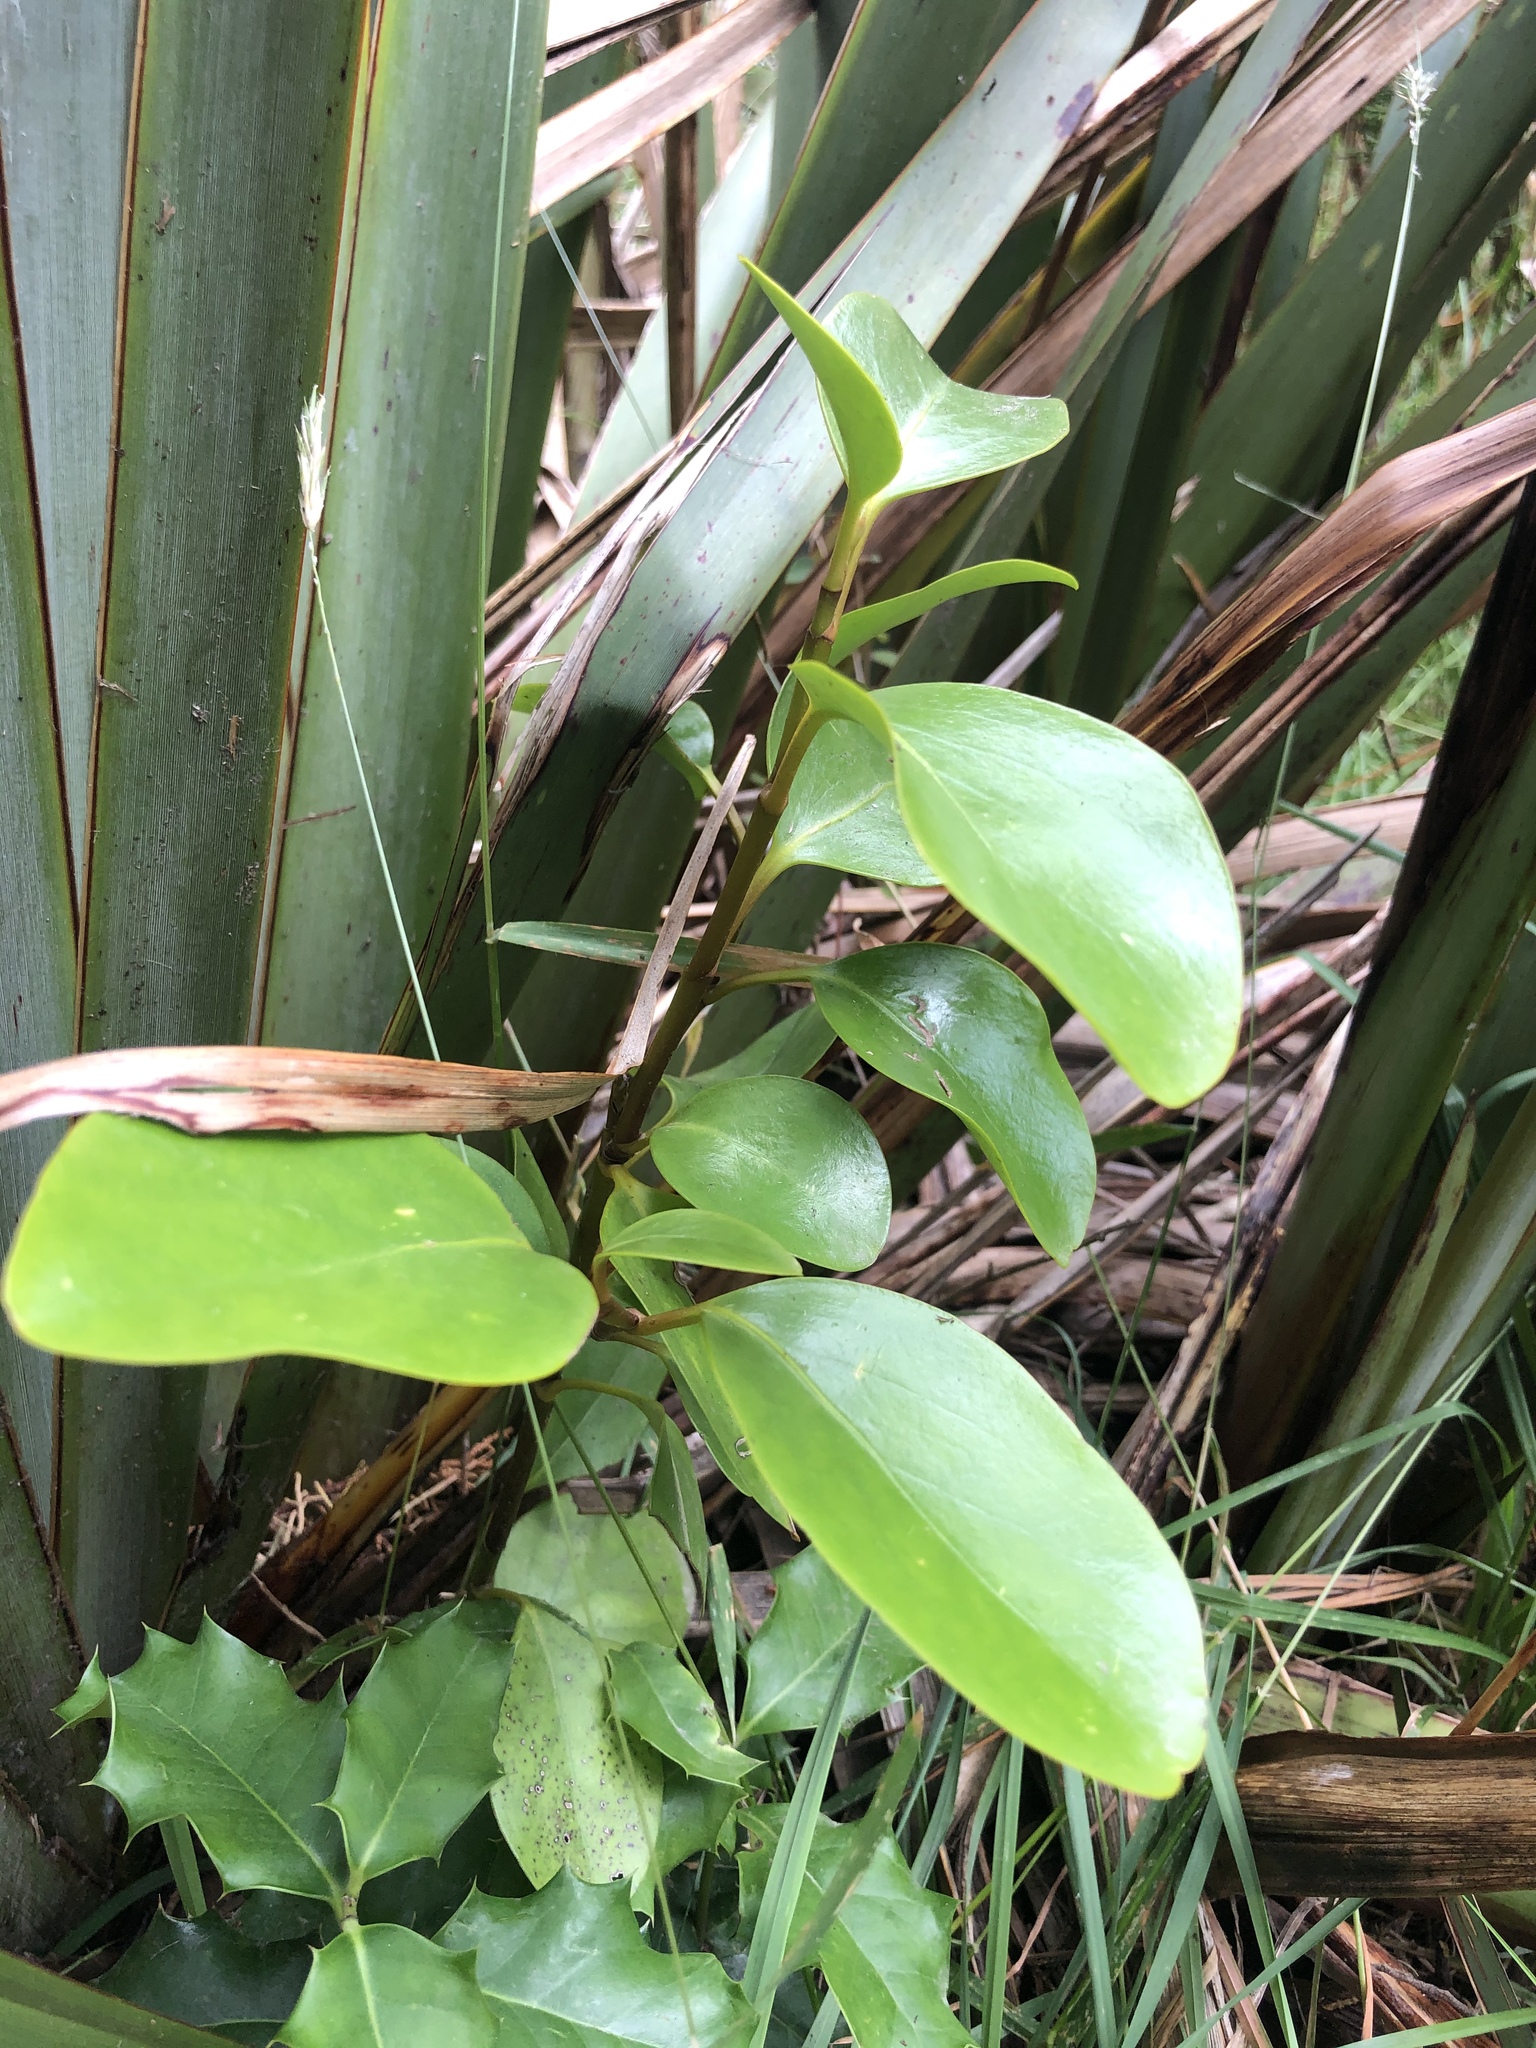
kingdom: Plantae
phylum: Tracheophyta
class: Magnoliopsida
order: Apiales
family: Griseliniaceae
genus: Griselinia
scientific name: Griselinia littoralis
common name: New zealand broadleaf
